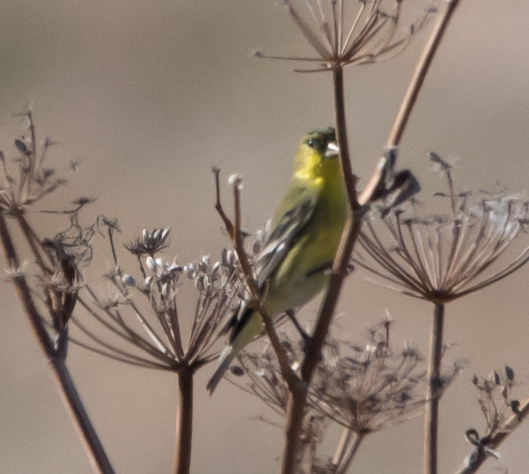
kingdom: Animalia
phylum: Chordata
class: Aves
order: Passeriformes
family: Fringillidae
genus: Spinus
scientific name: Spinus psaltria
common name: Lesser goldfinch
